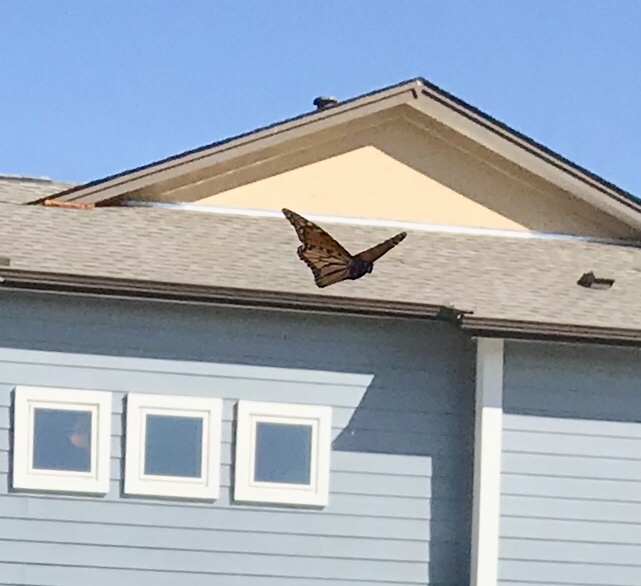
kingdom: Animalia
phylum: Arthropoda
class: Insecta
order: Lepidoptera
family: Nymphalidae
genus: Danaus
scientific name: Danaus plexippus
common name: Monarch
